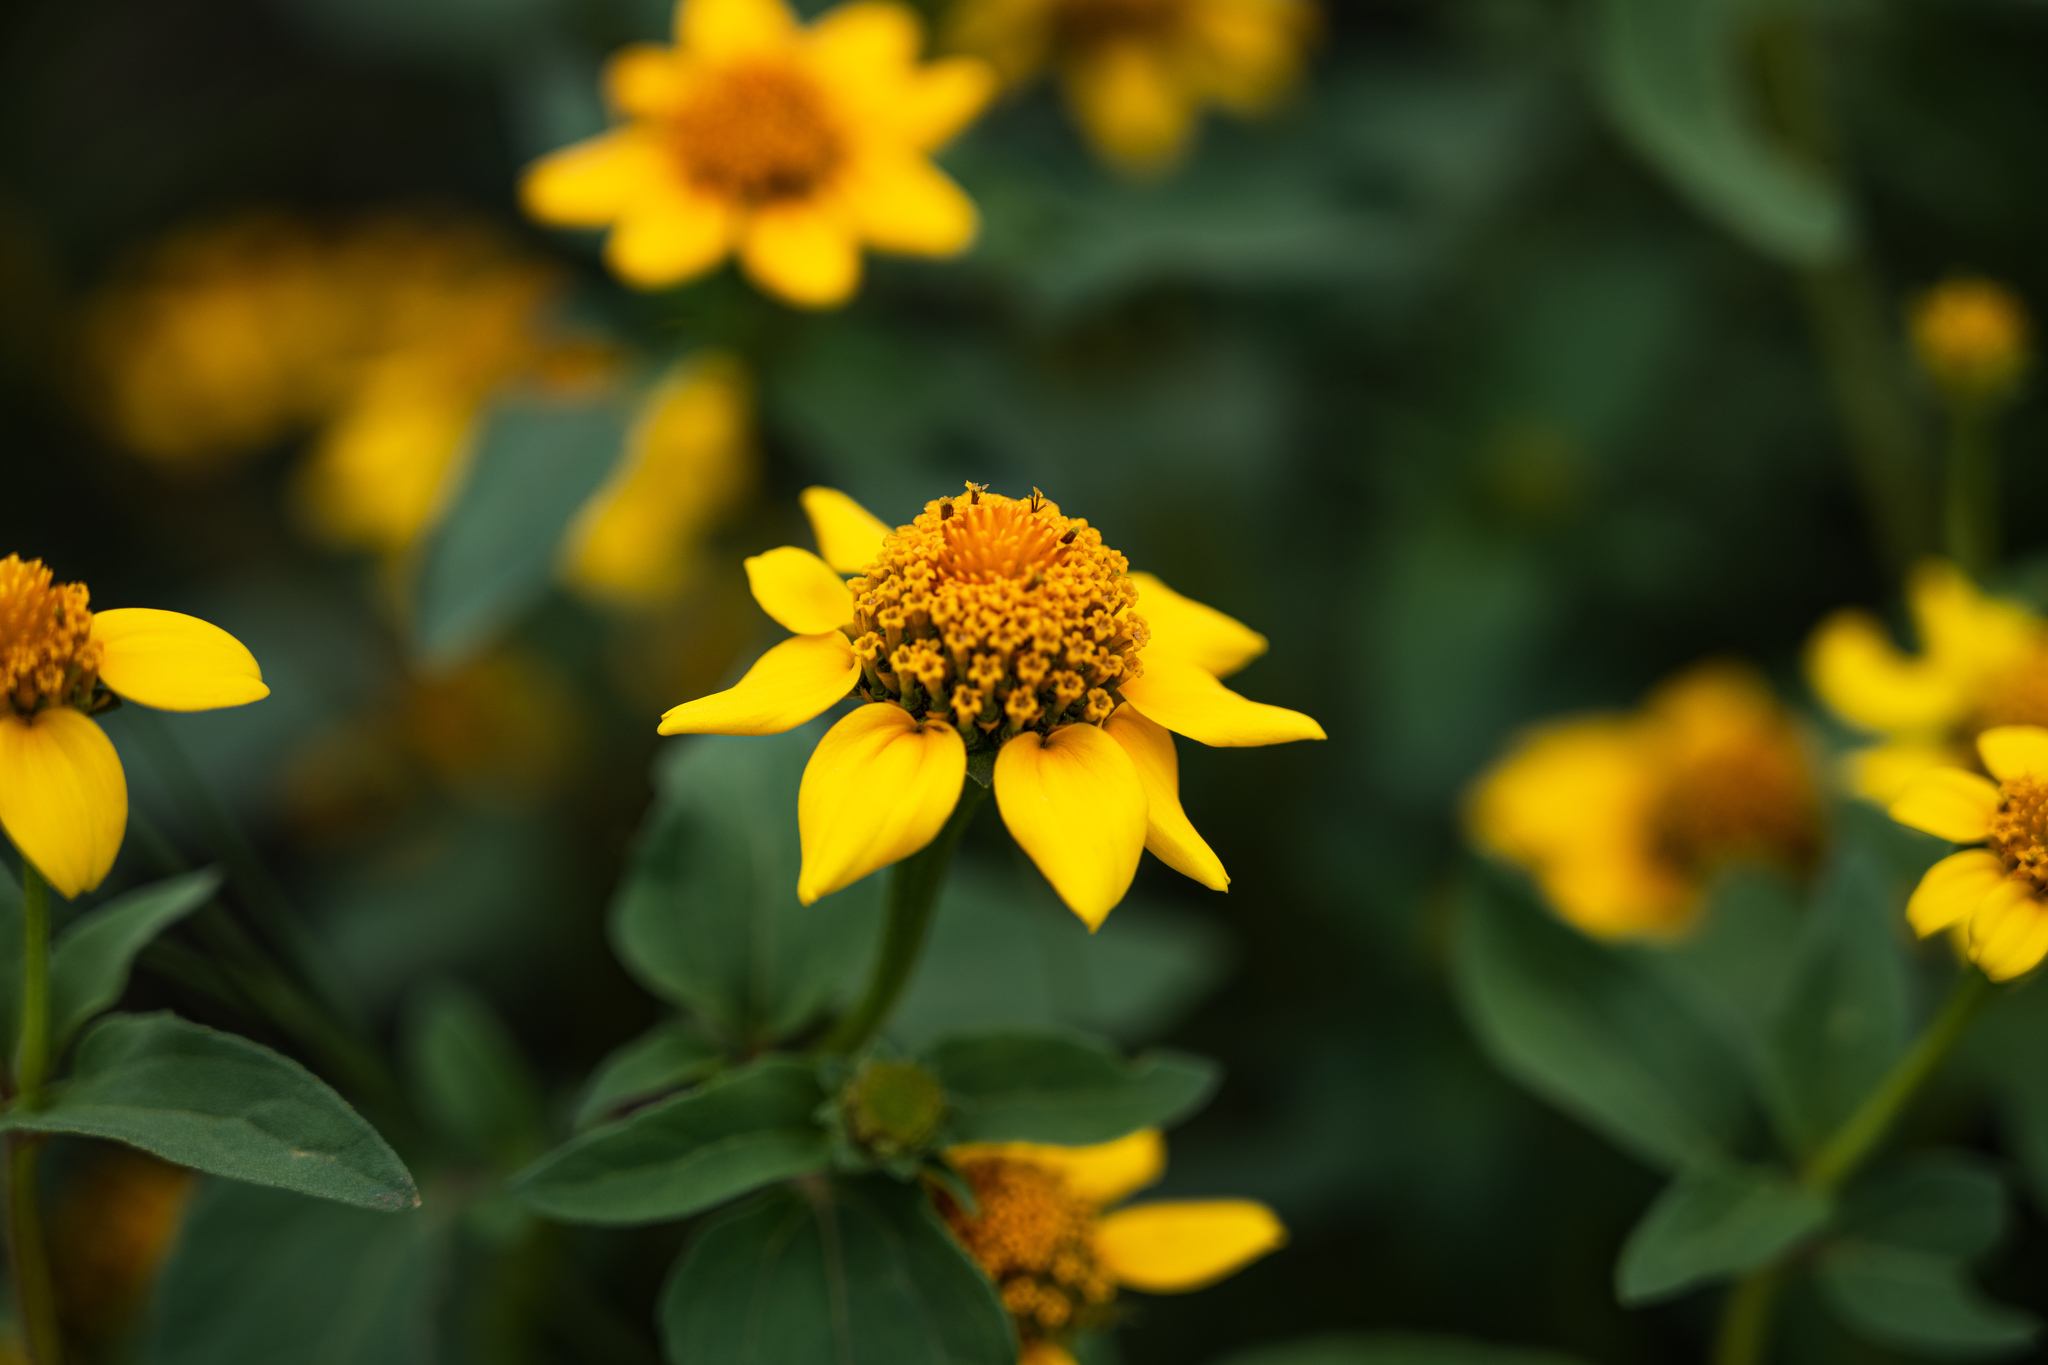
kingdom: Plantae
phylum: Tracheophyta
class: Magnoliopsida
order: Asterales
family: Asteraceae
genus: Heliopsis
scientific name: Heliopsis annua
